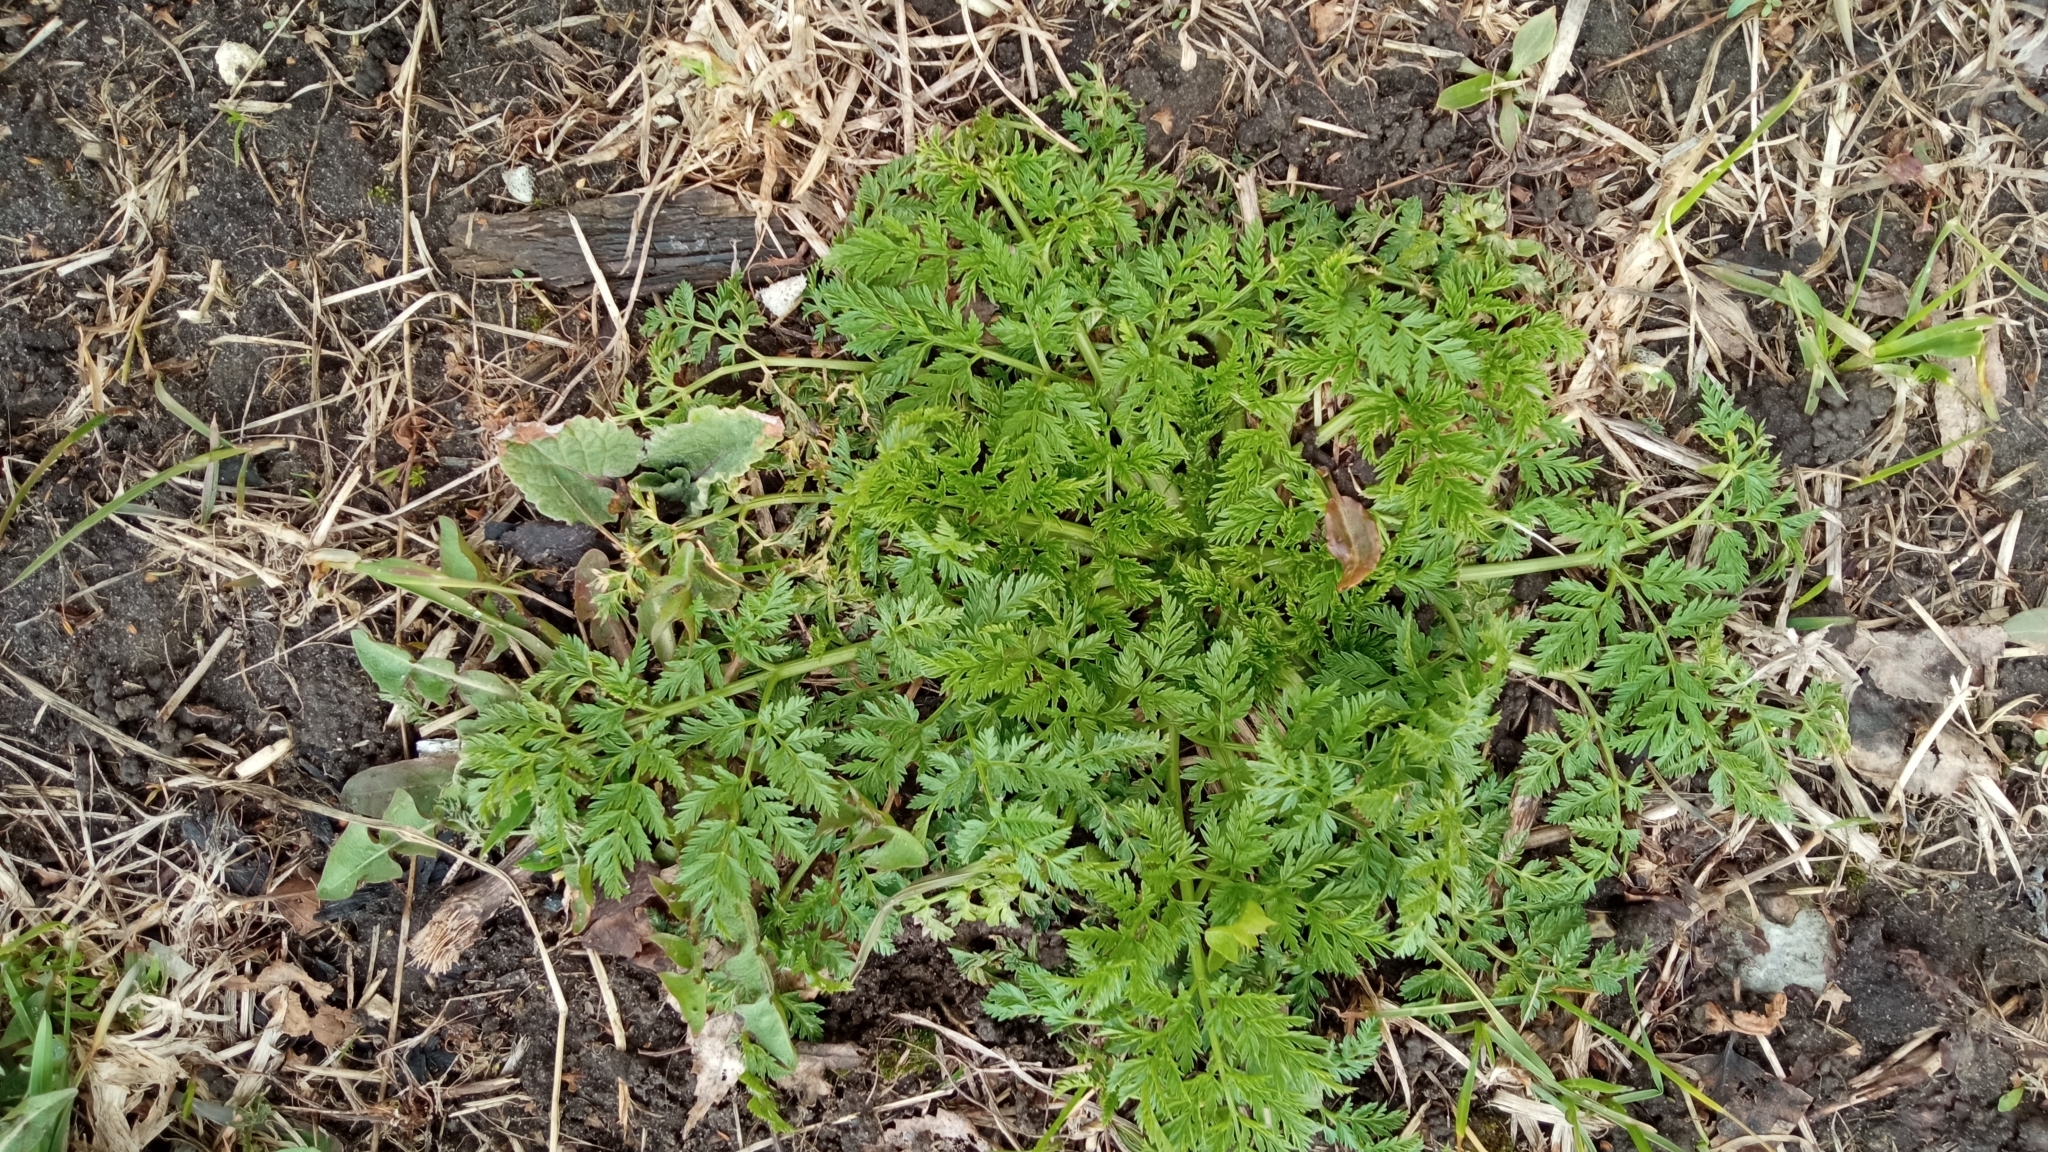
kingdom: Plantae
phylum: Tracheophyta
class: Magnoliopsida
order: Apiales
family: Apiaceae
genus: Anthriscus
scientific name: Anthriscus sylvestris
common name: Cow parsley
